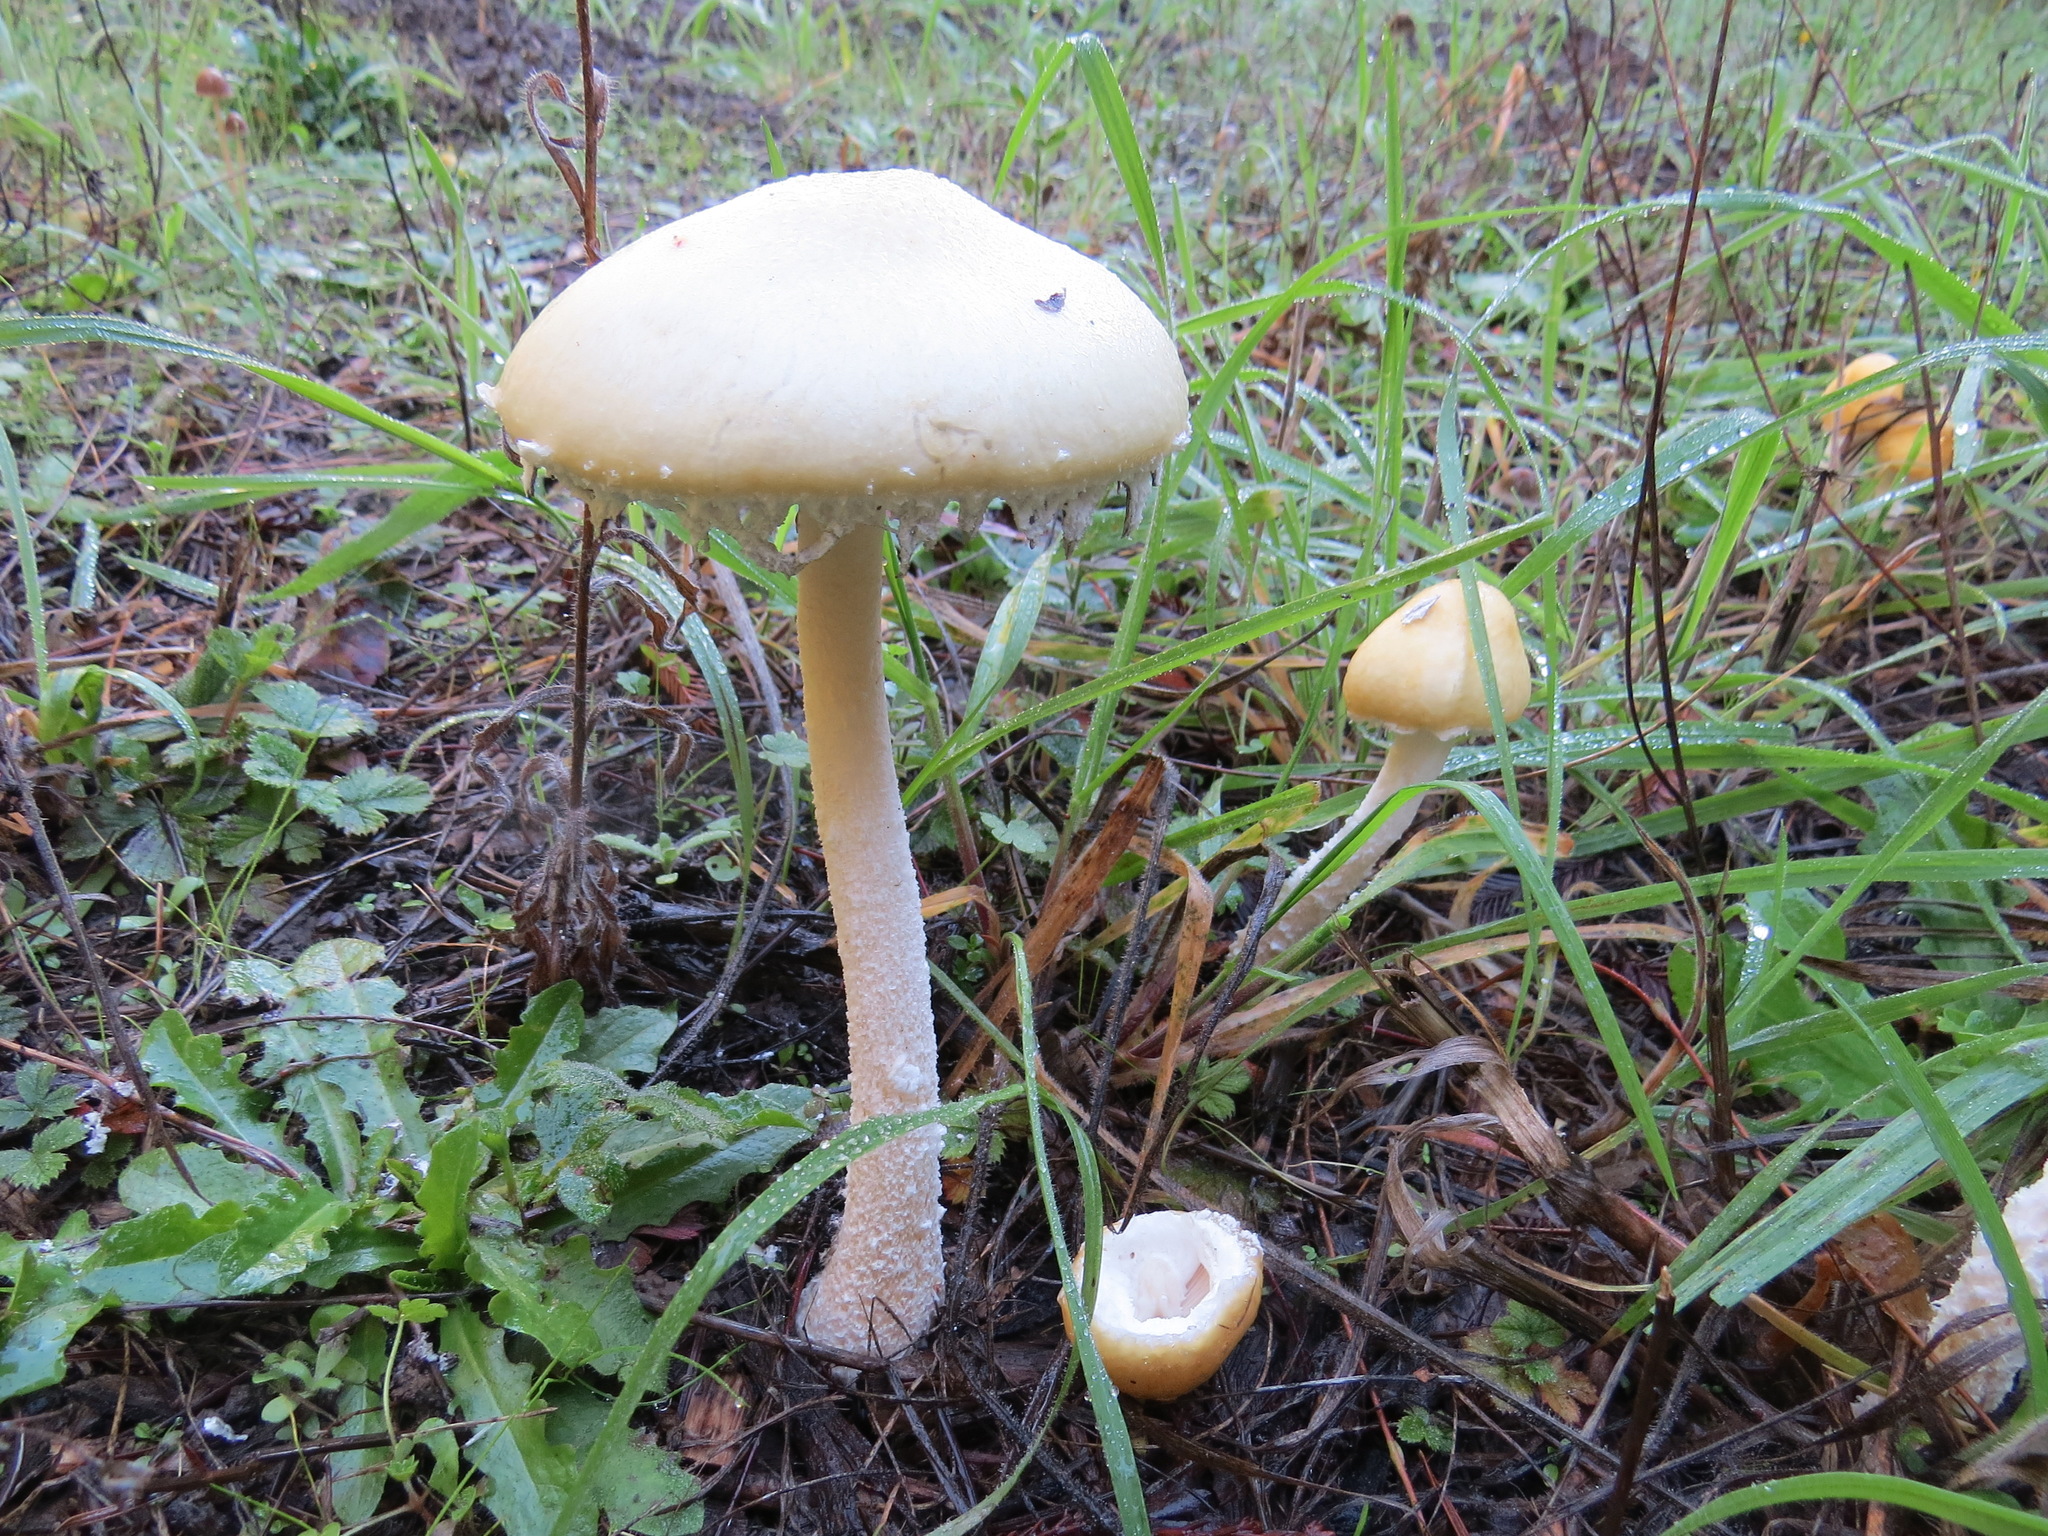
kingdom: Fungi
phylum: Basidiomycota
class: Agaricomycetes
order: Agaricales
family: Strophariaceae
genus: Stropharia
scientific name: Stropharia ambigua
